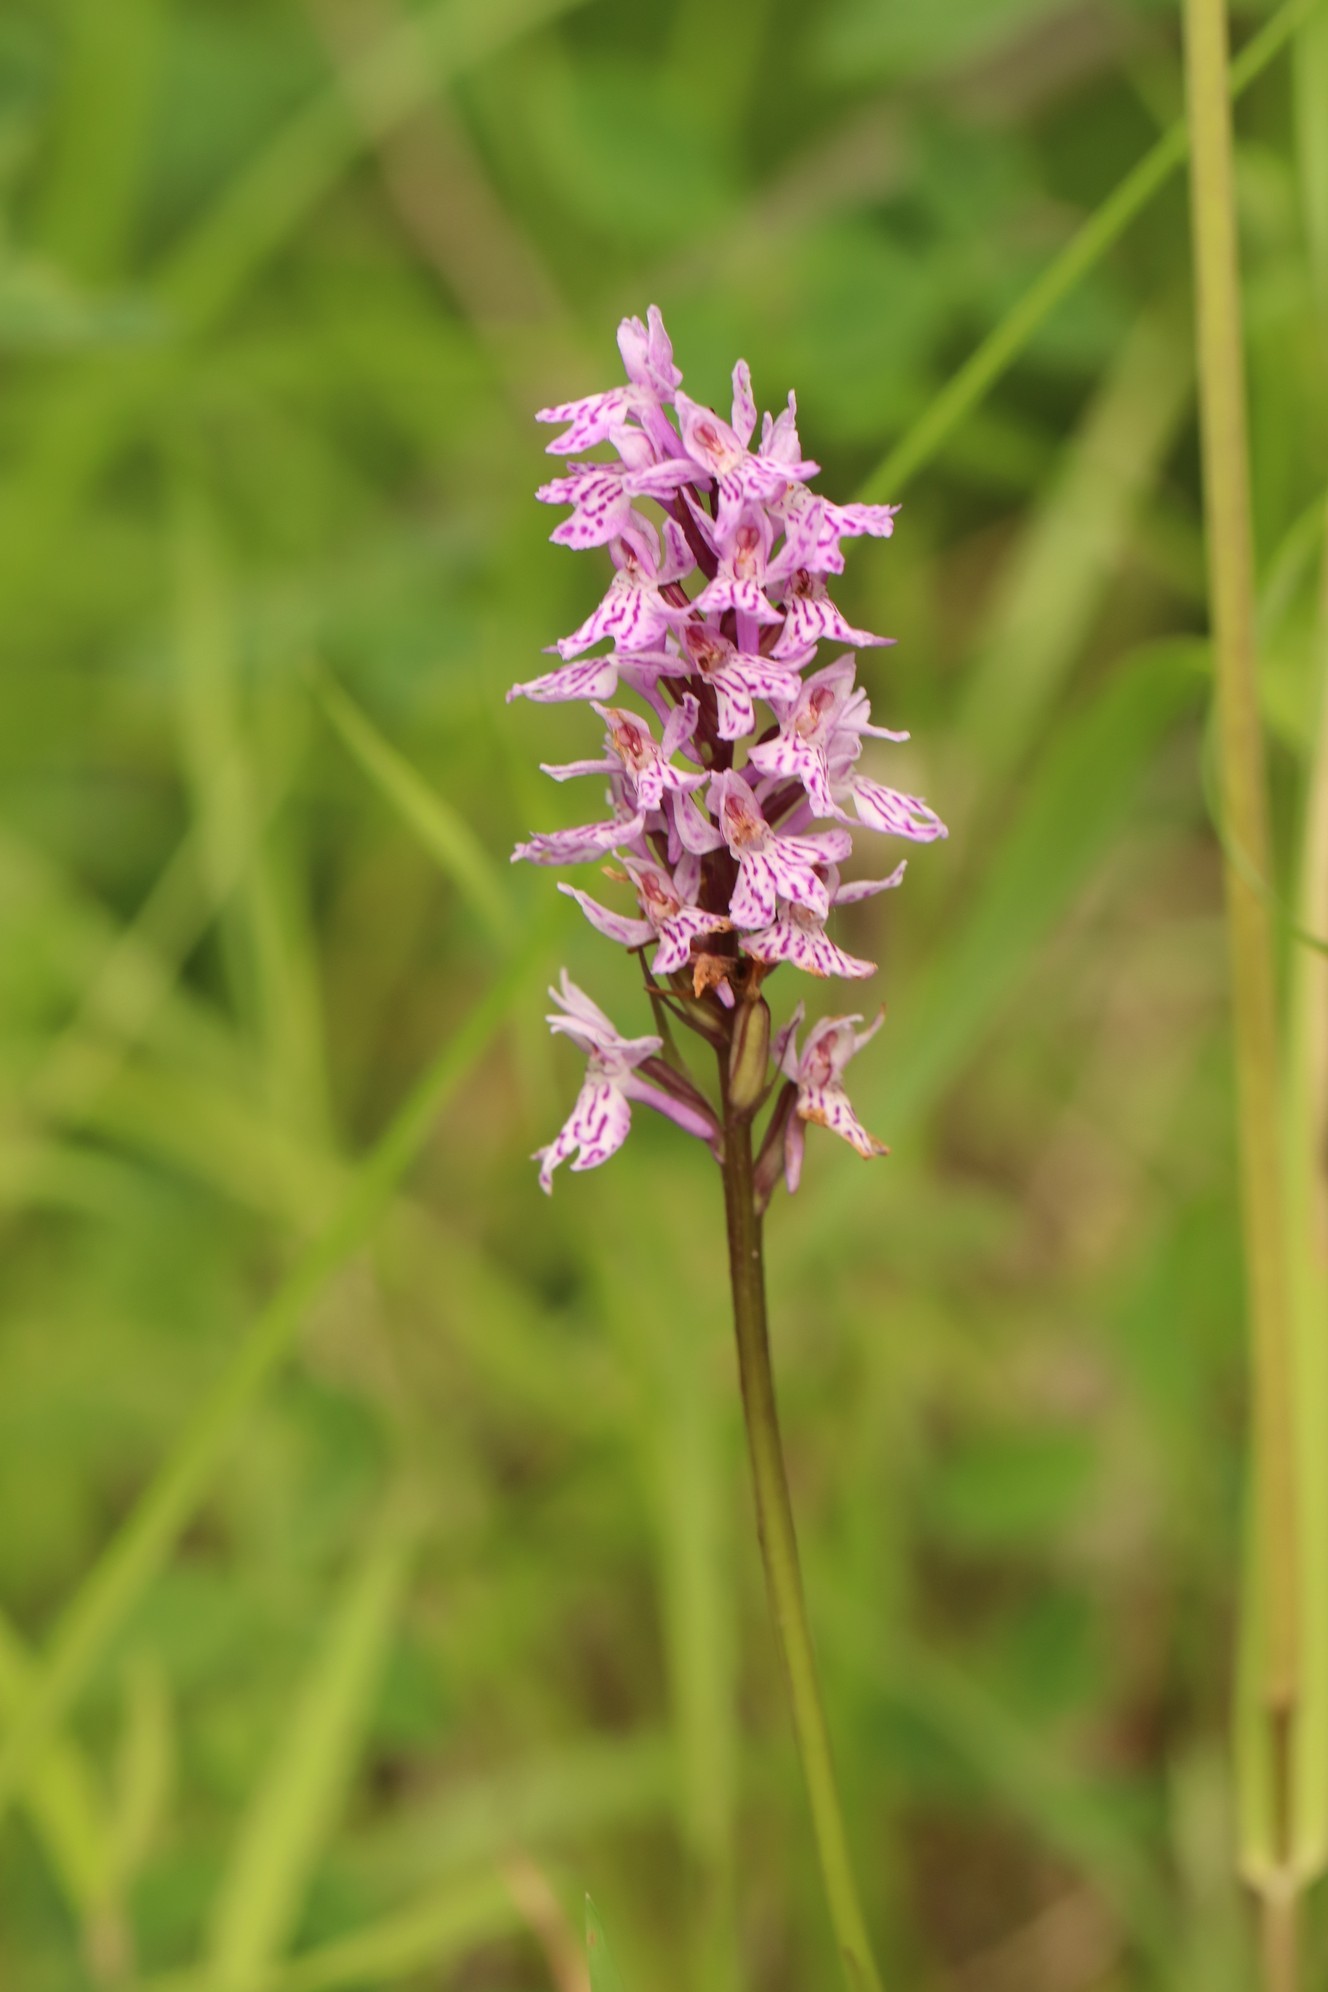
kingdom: Plantae
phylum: Tracheophyta
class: Liliopsida
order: Asparagales
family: Orchidaceae
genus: Dactylorhiza
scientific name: Dactylorhiza maculata
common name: Heath spotted-orchid
